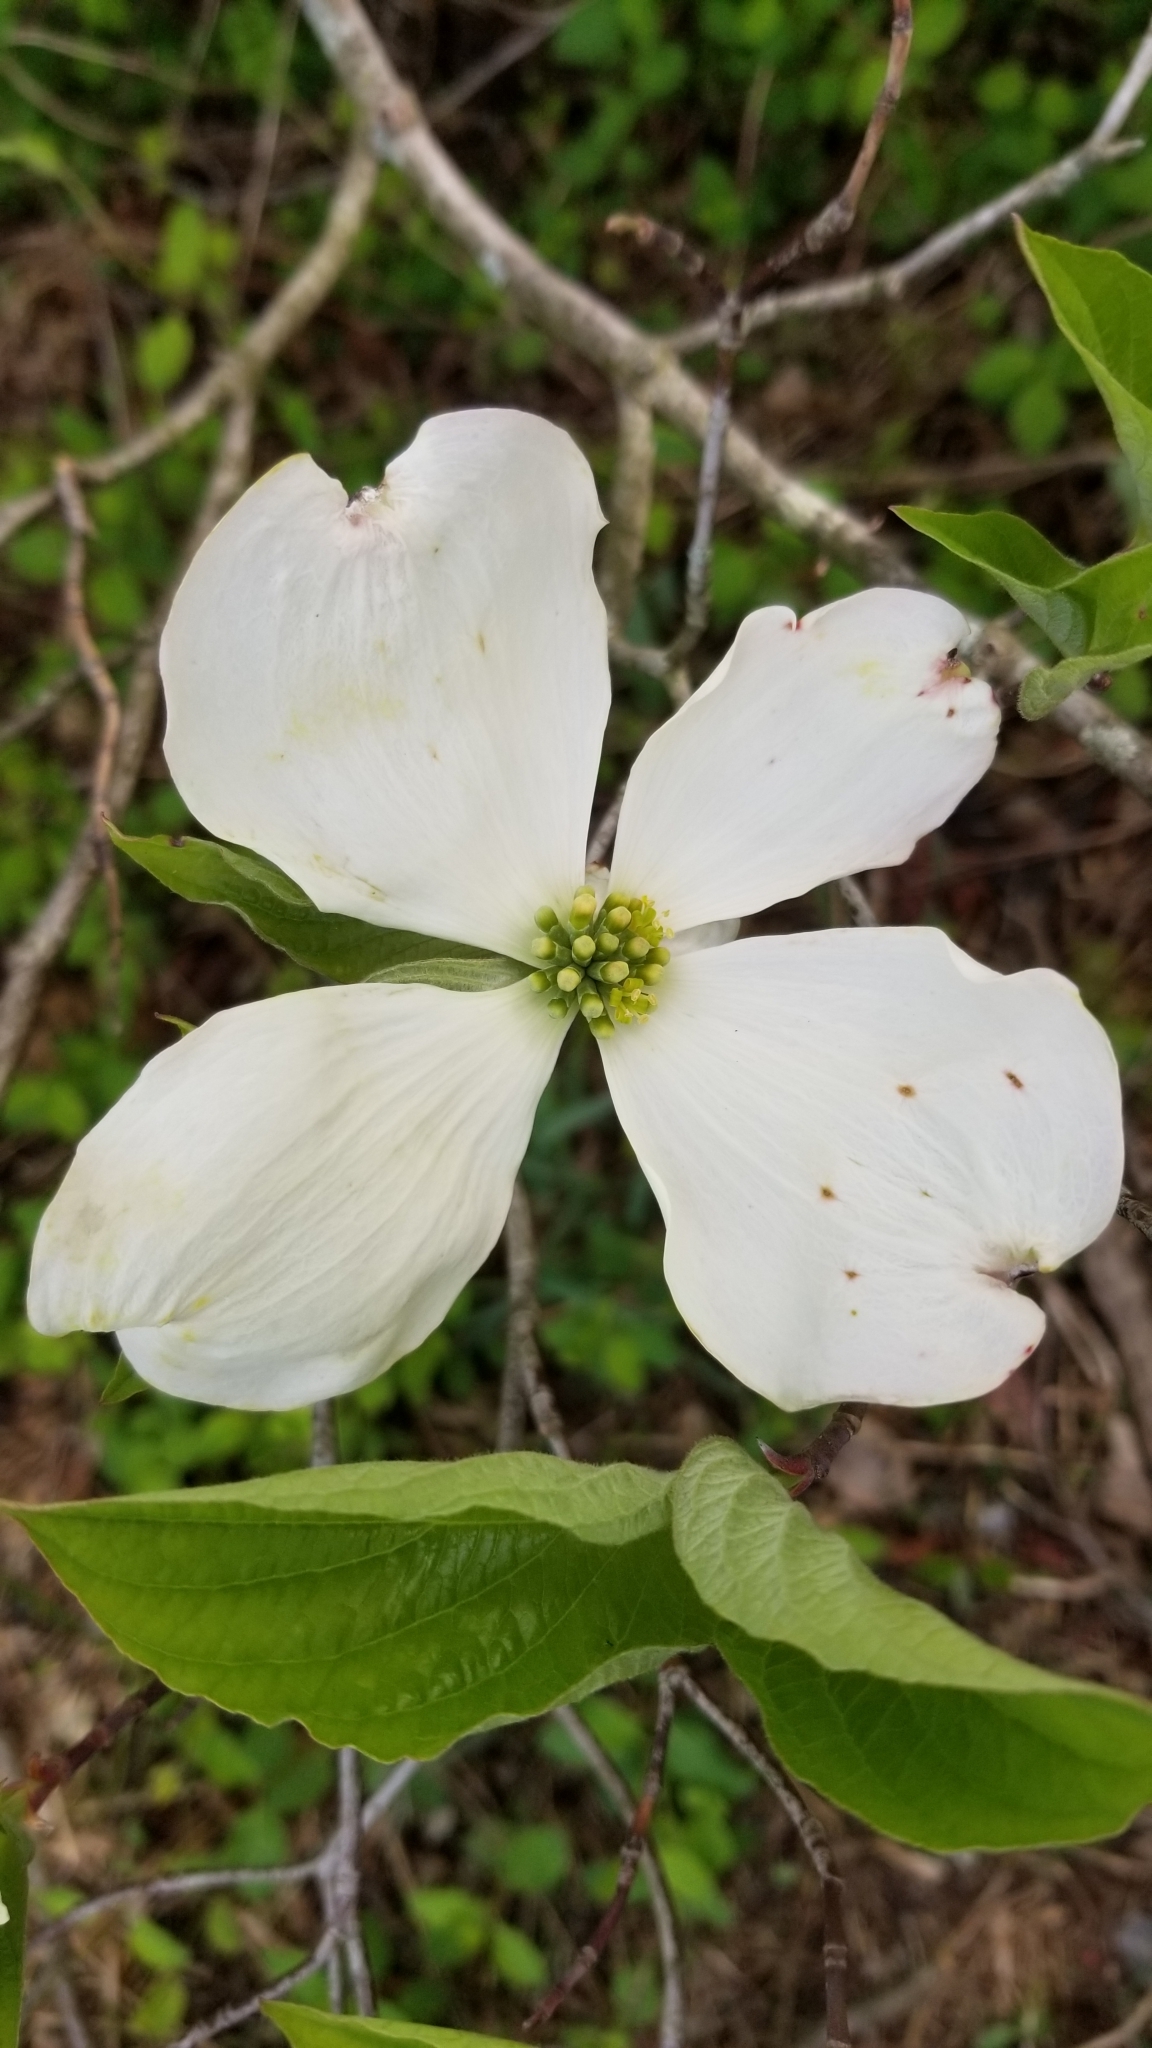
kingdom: Plantae
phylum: Tracheophyta
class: Magnoliopsida
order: Cornales
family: Cornaceae
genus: Cornus
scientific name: Cornus florida
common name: Flowering dogwood
